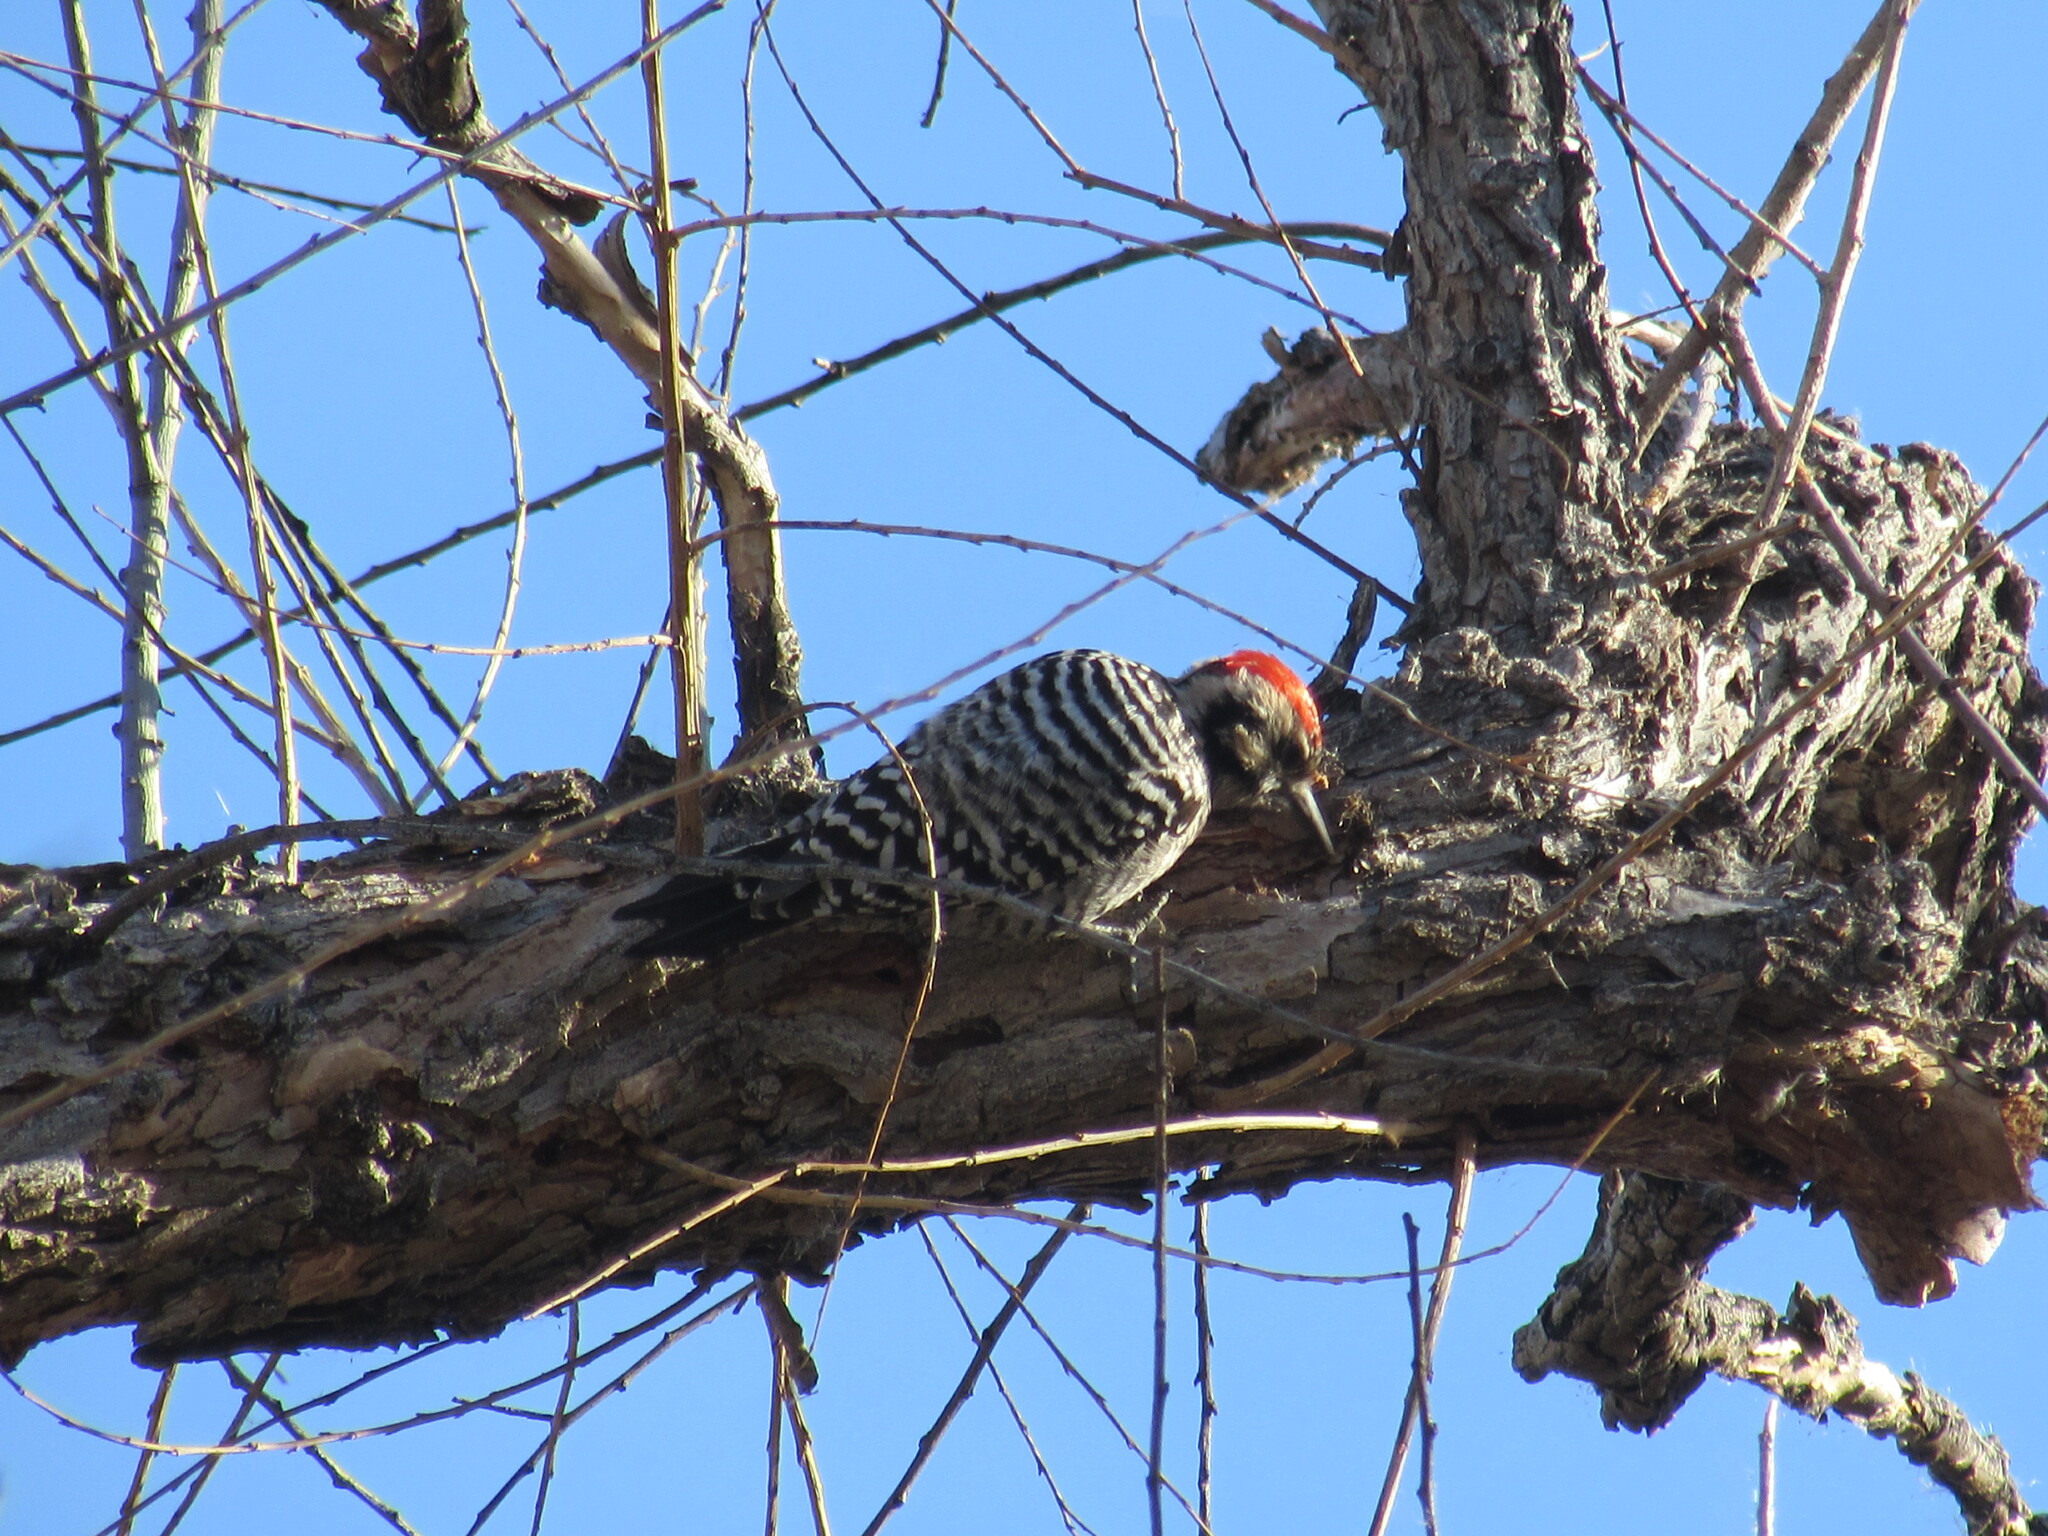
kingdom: Animalia
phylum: Chordata
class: Aves
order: Piciformes
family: Picidae
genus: Dryobates
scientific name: Dryobates scalaris
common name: Ladder-backed woodpecker
